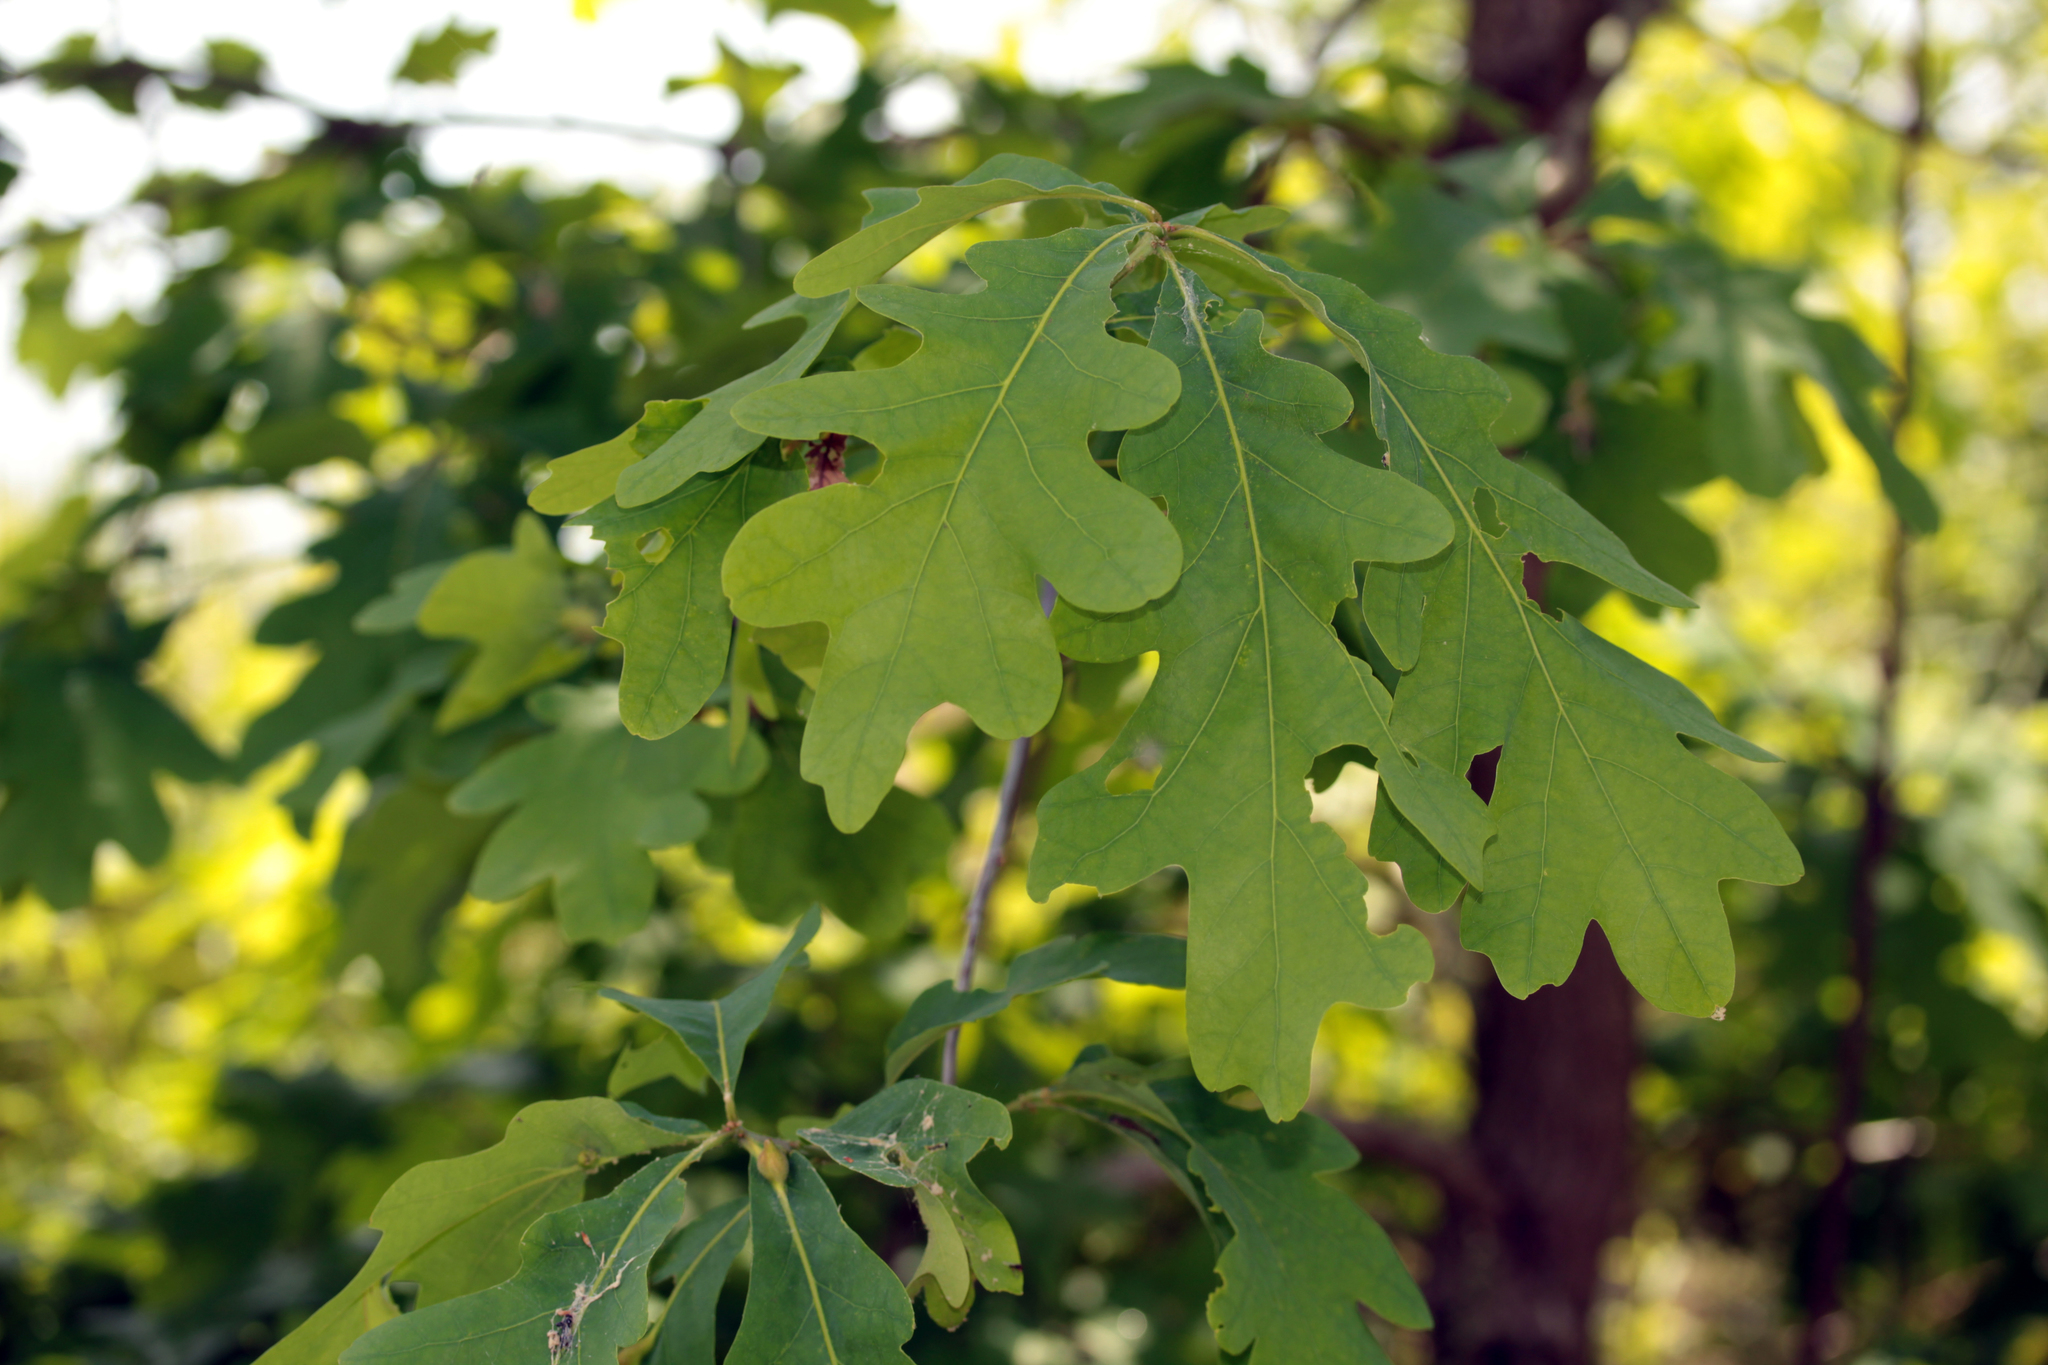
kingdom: Plantae
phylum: Tracheophyta
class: Magnoliopsida
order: Fagales
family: Fagaceae
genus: Quercus
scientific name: Quercus alba
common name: White oak
